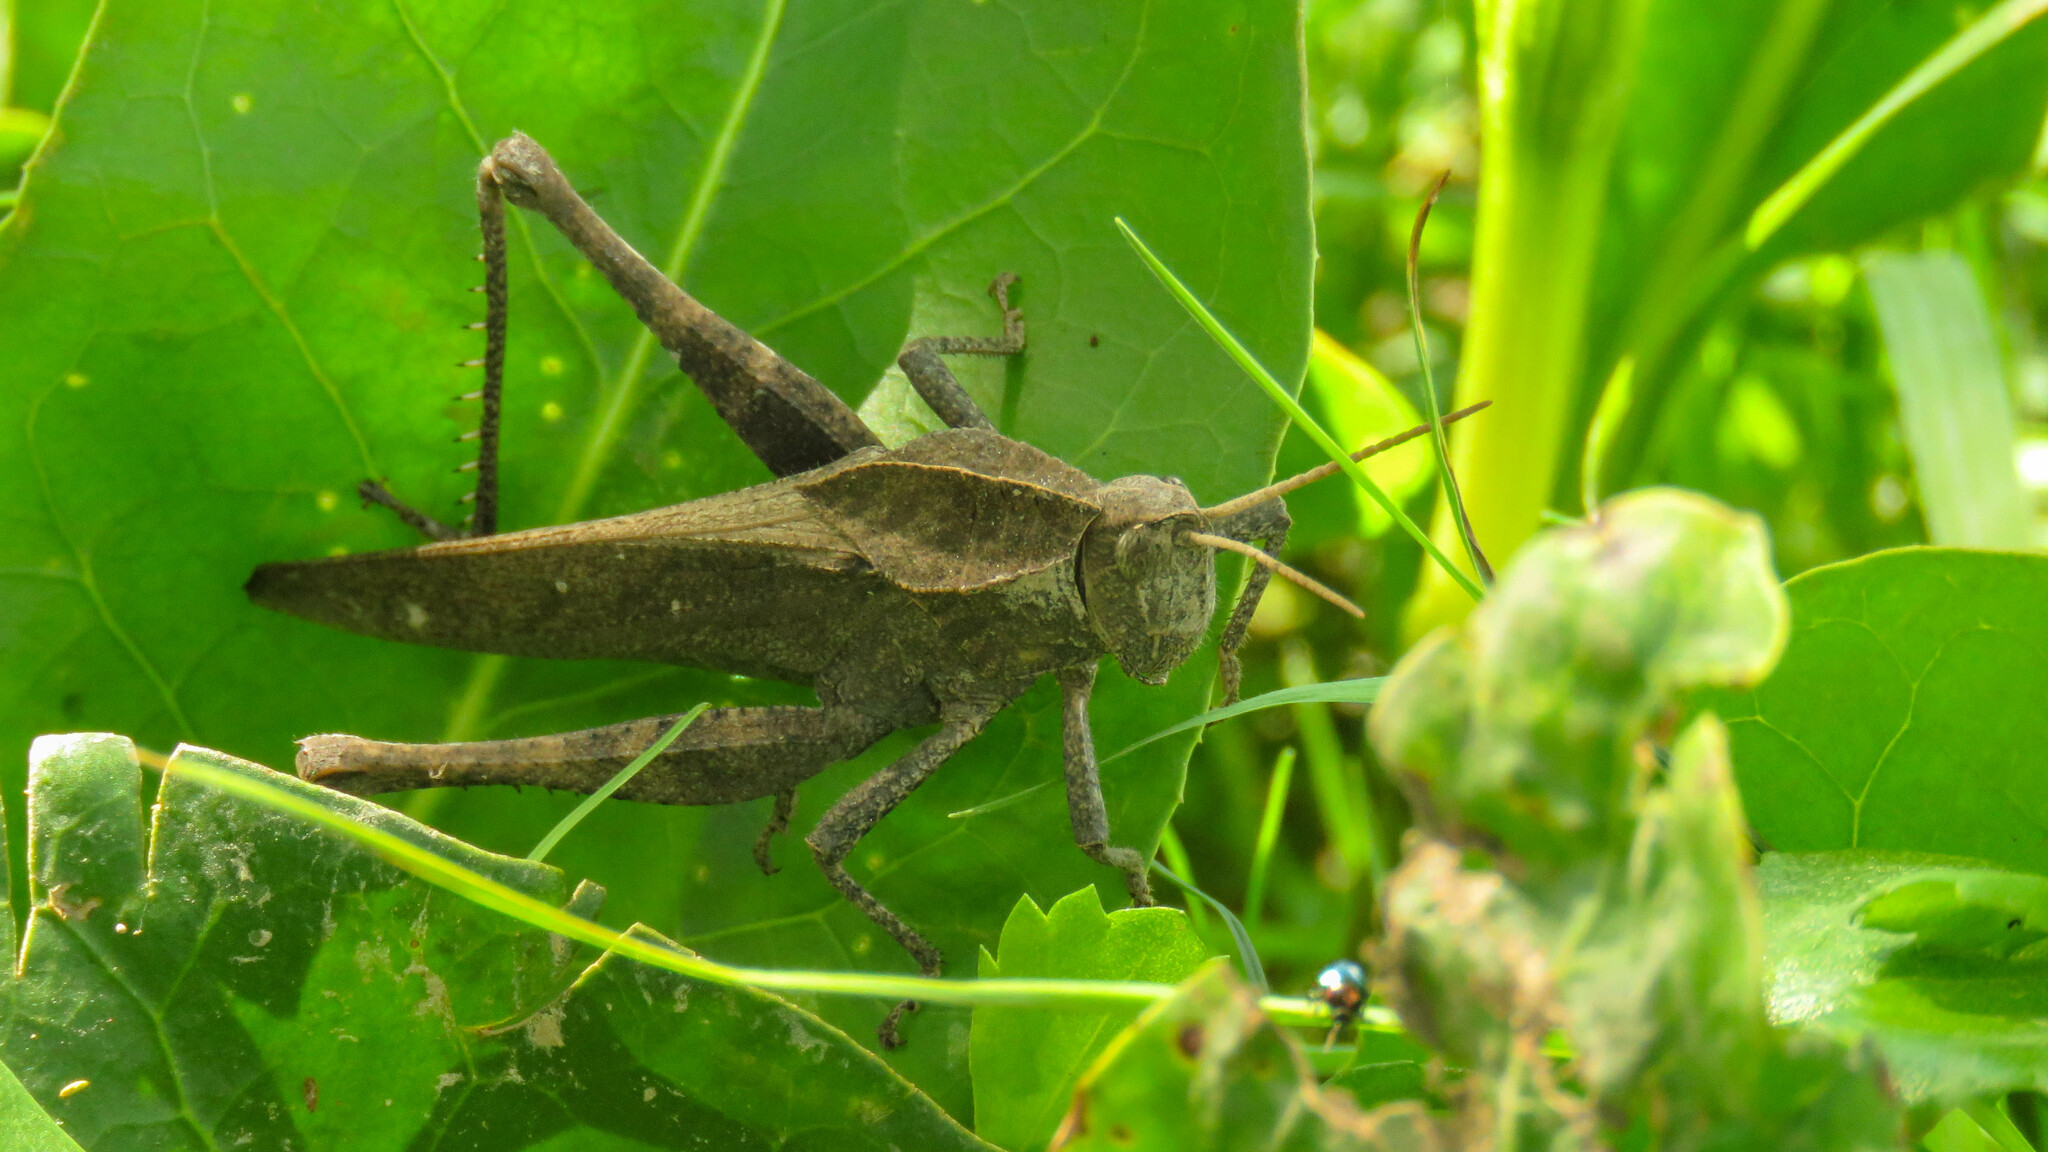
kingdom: Animalia
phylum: Arthropoda
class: Insecta
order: Orthoptera
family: Romaleidae
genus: Xyleus
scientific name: Xyleus discoideus
